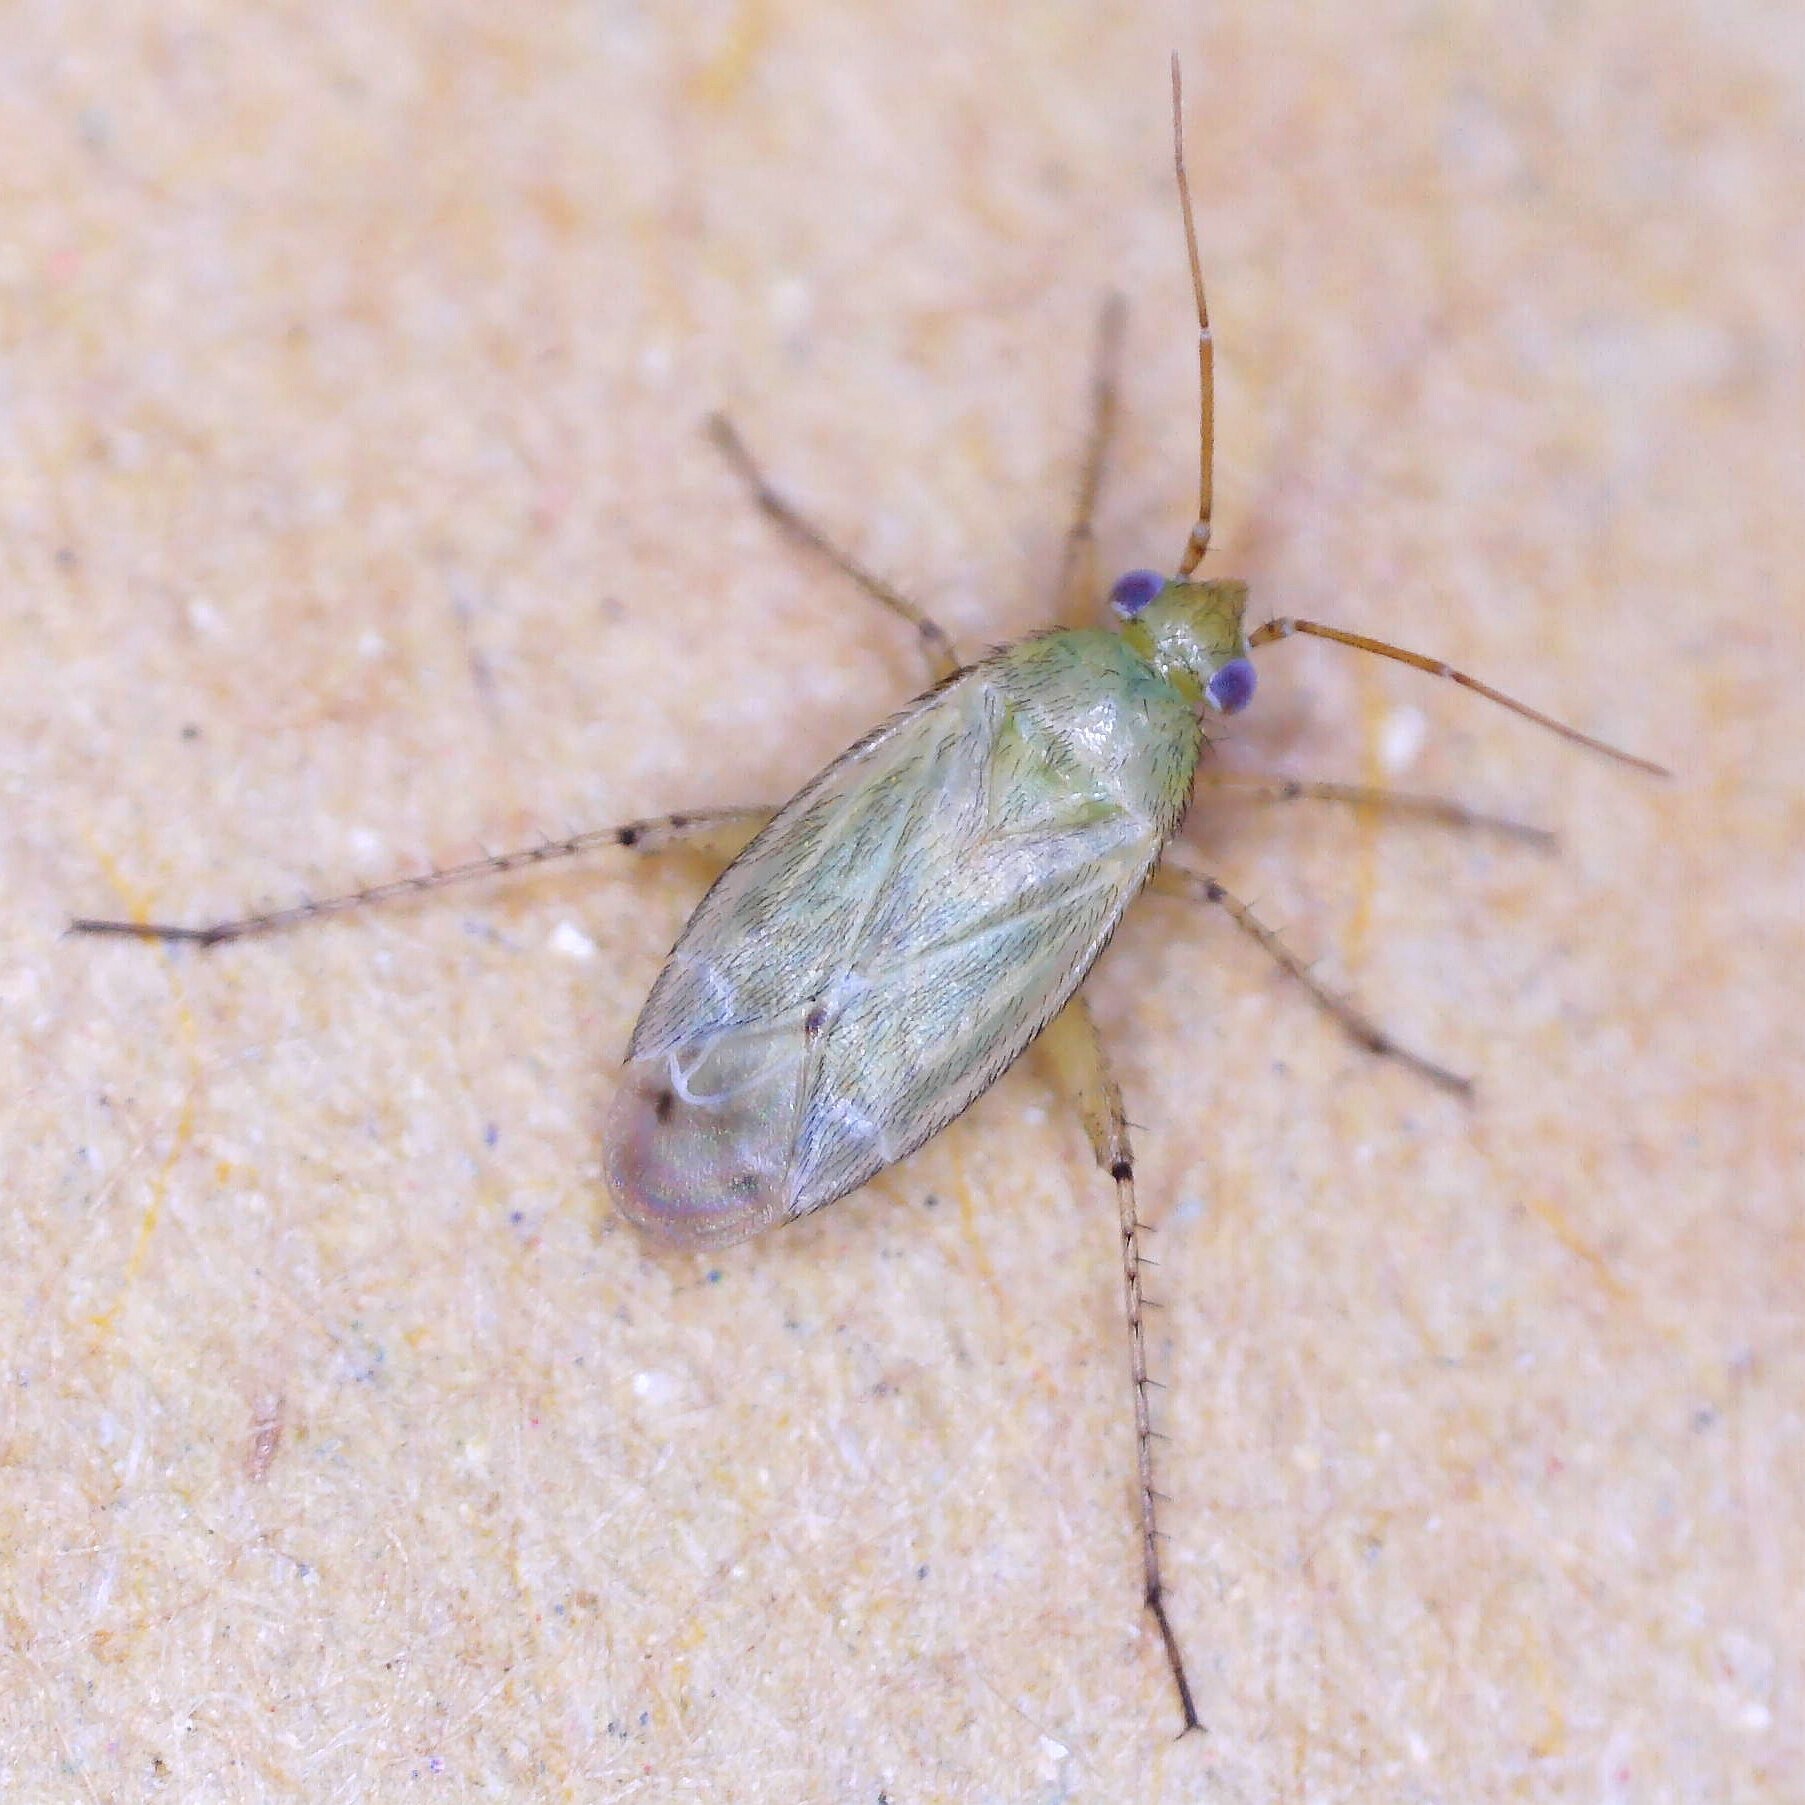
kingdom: Animalia
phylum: Arthropoda
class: Insecta
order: Hemiptera
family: Miridae
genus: Plagiognathus
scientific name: Plagiognathus chrysanthemi
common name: Plant bug
